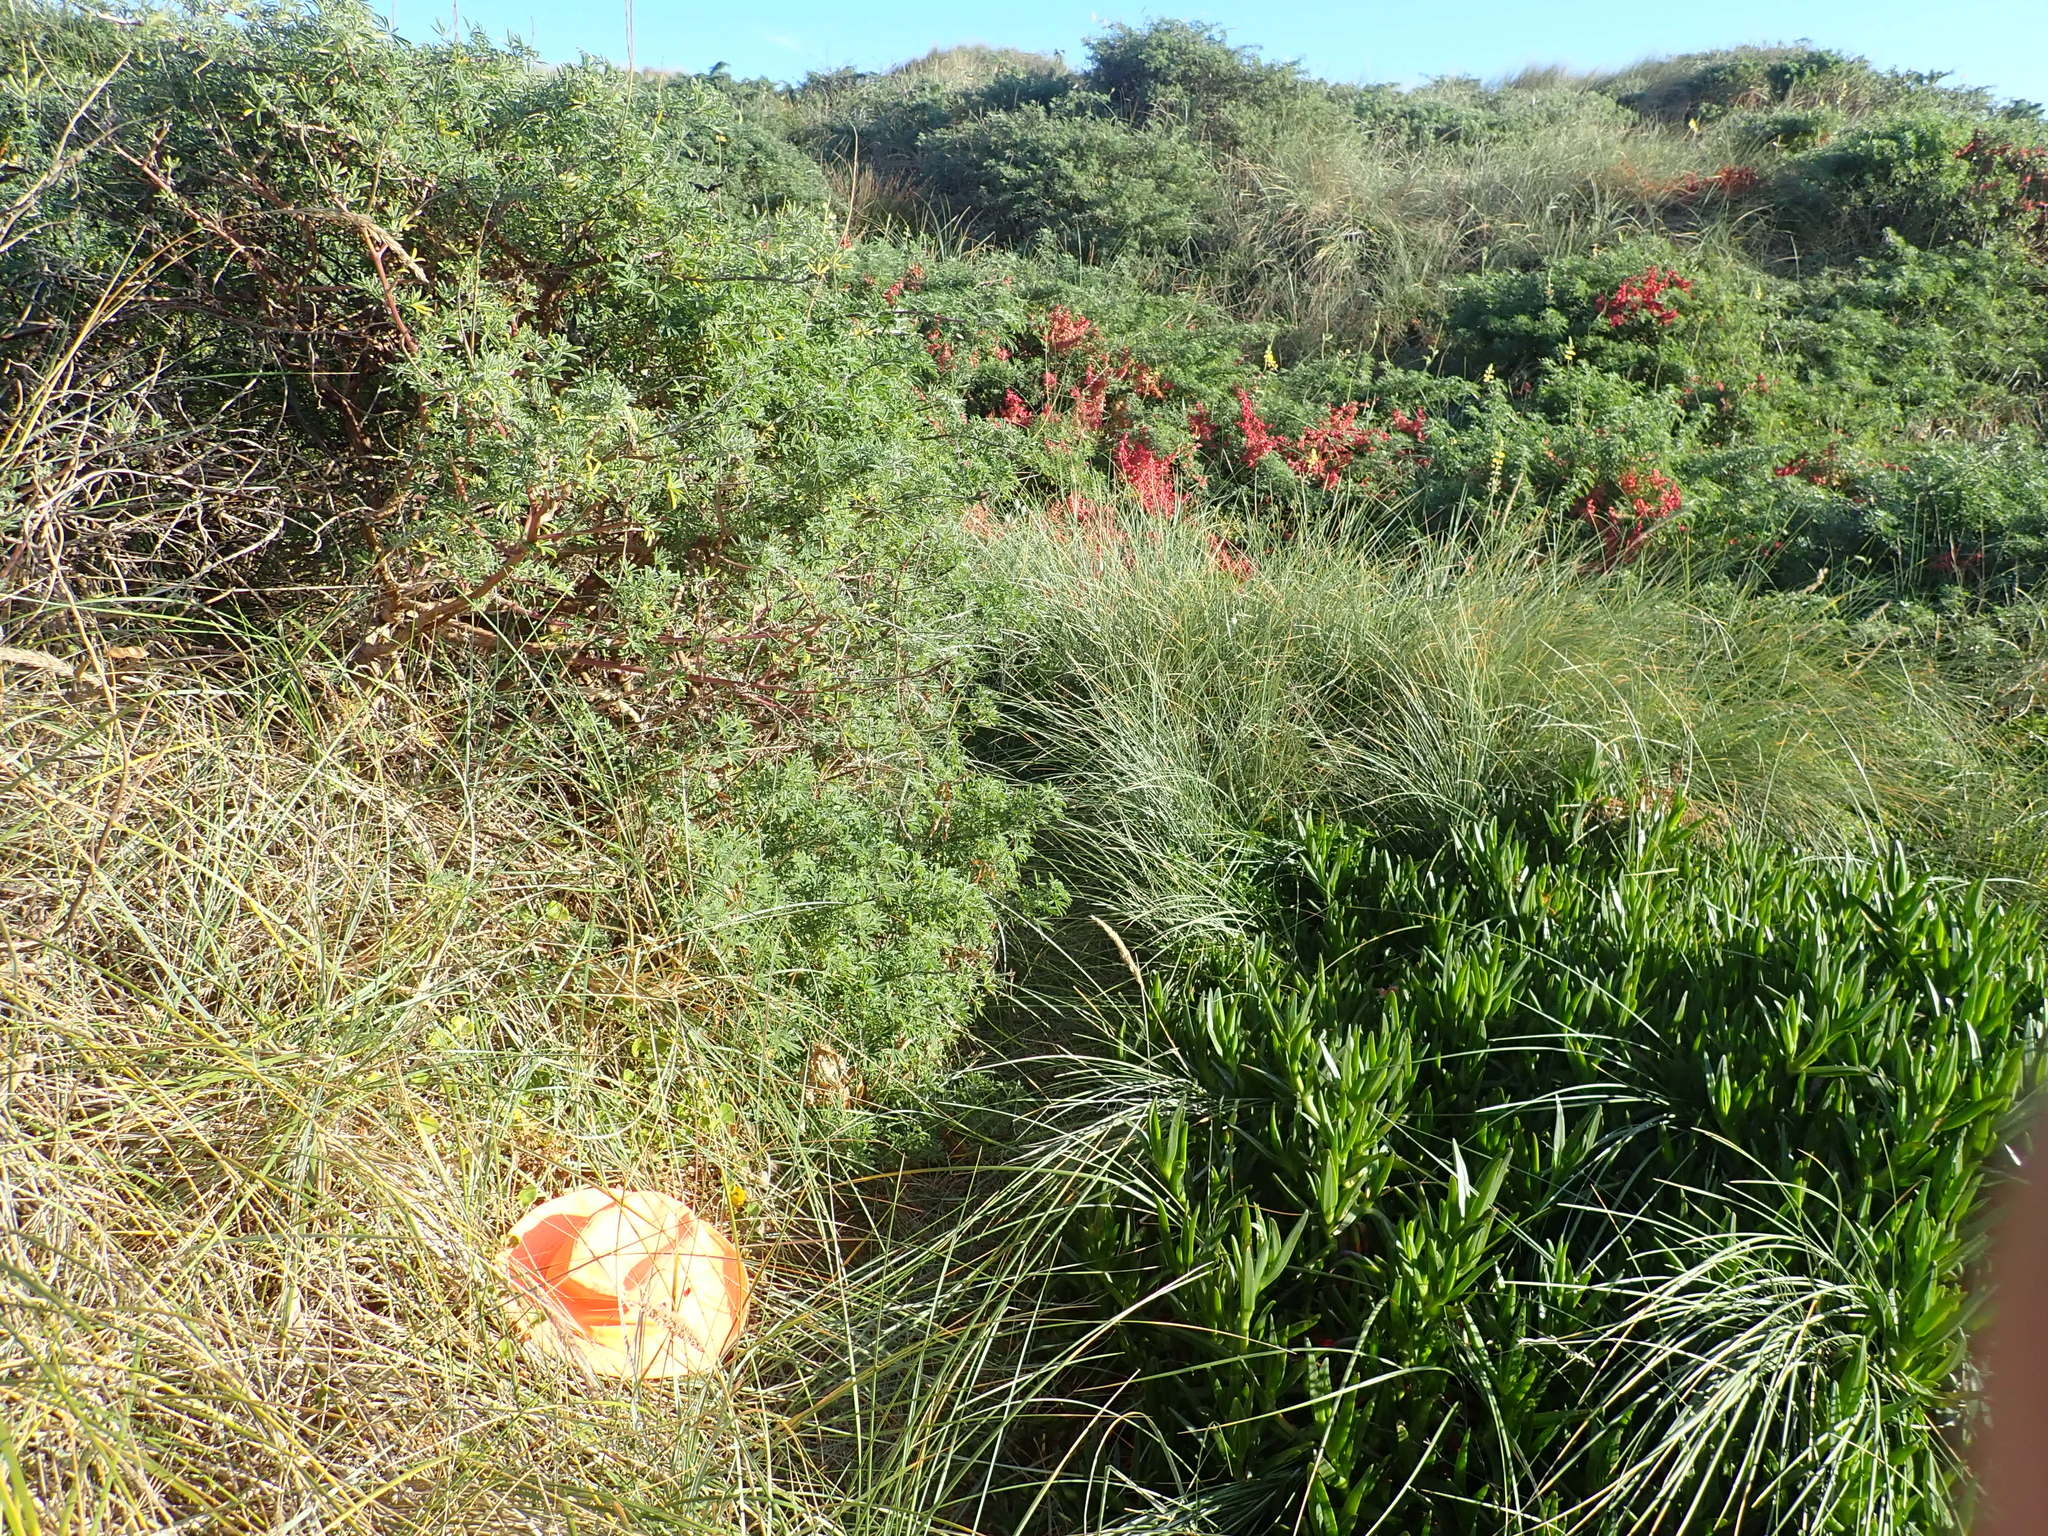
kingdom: Plantae
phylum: Tracheophyta
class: Magnoliopsida
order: Solanales
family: Convolvulaceae
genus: Calystegia
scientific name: Calystegia soldanella
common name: Sea bindweed
